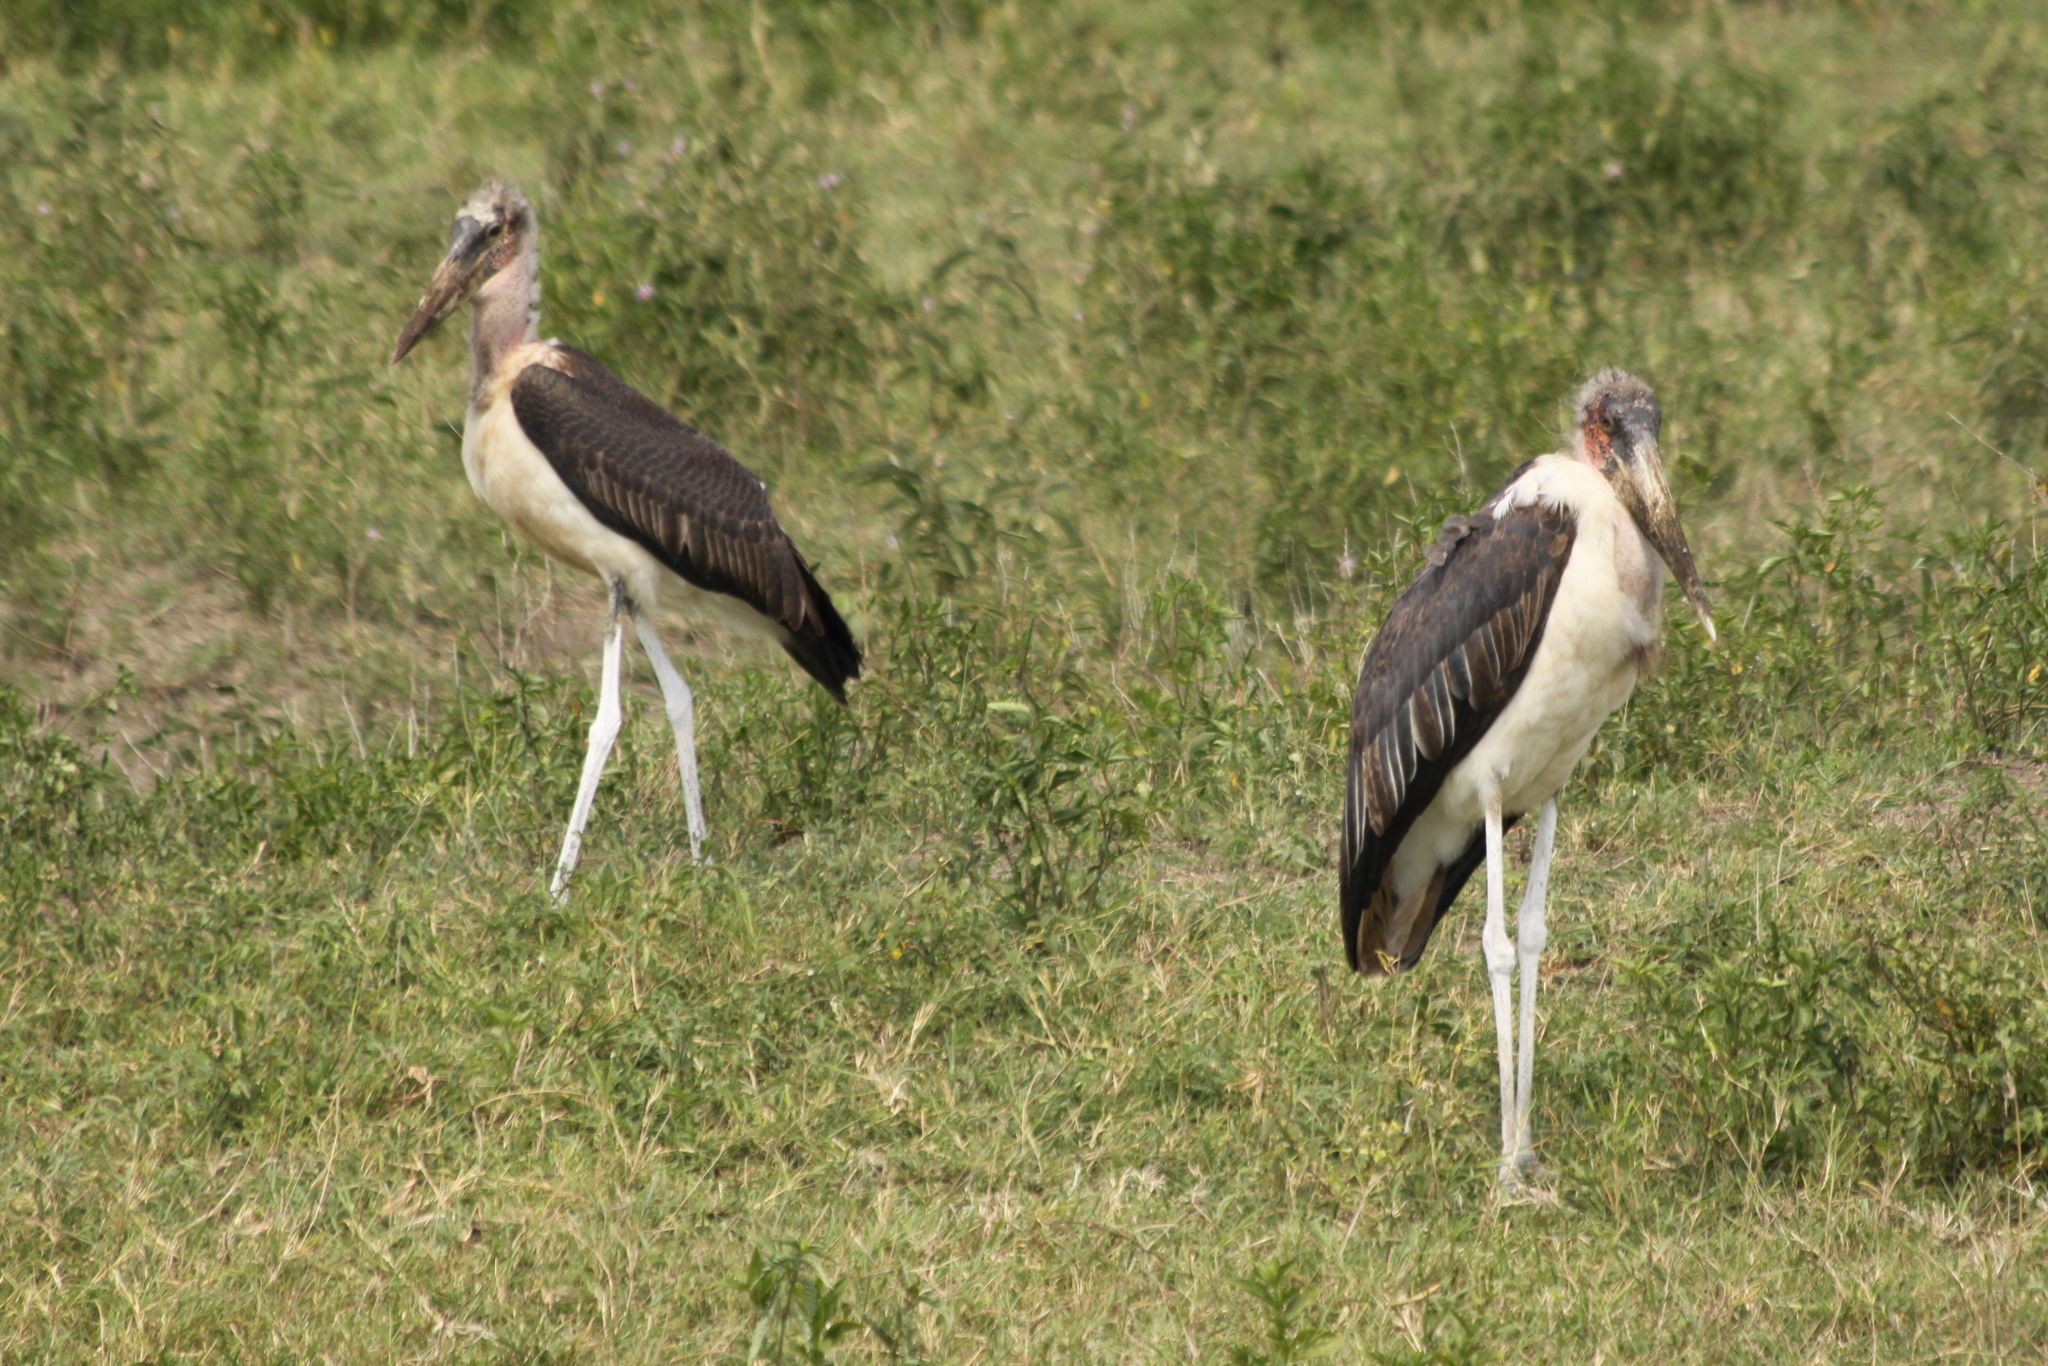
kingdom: Animalia
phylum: Chordata
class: Aves
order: Ciconiiformes
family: Ciconiidae
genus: Leptoptilos
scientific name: Leptoptilos crumenifer
